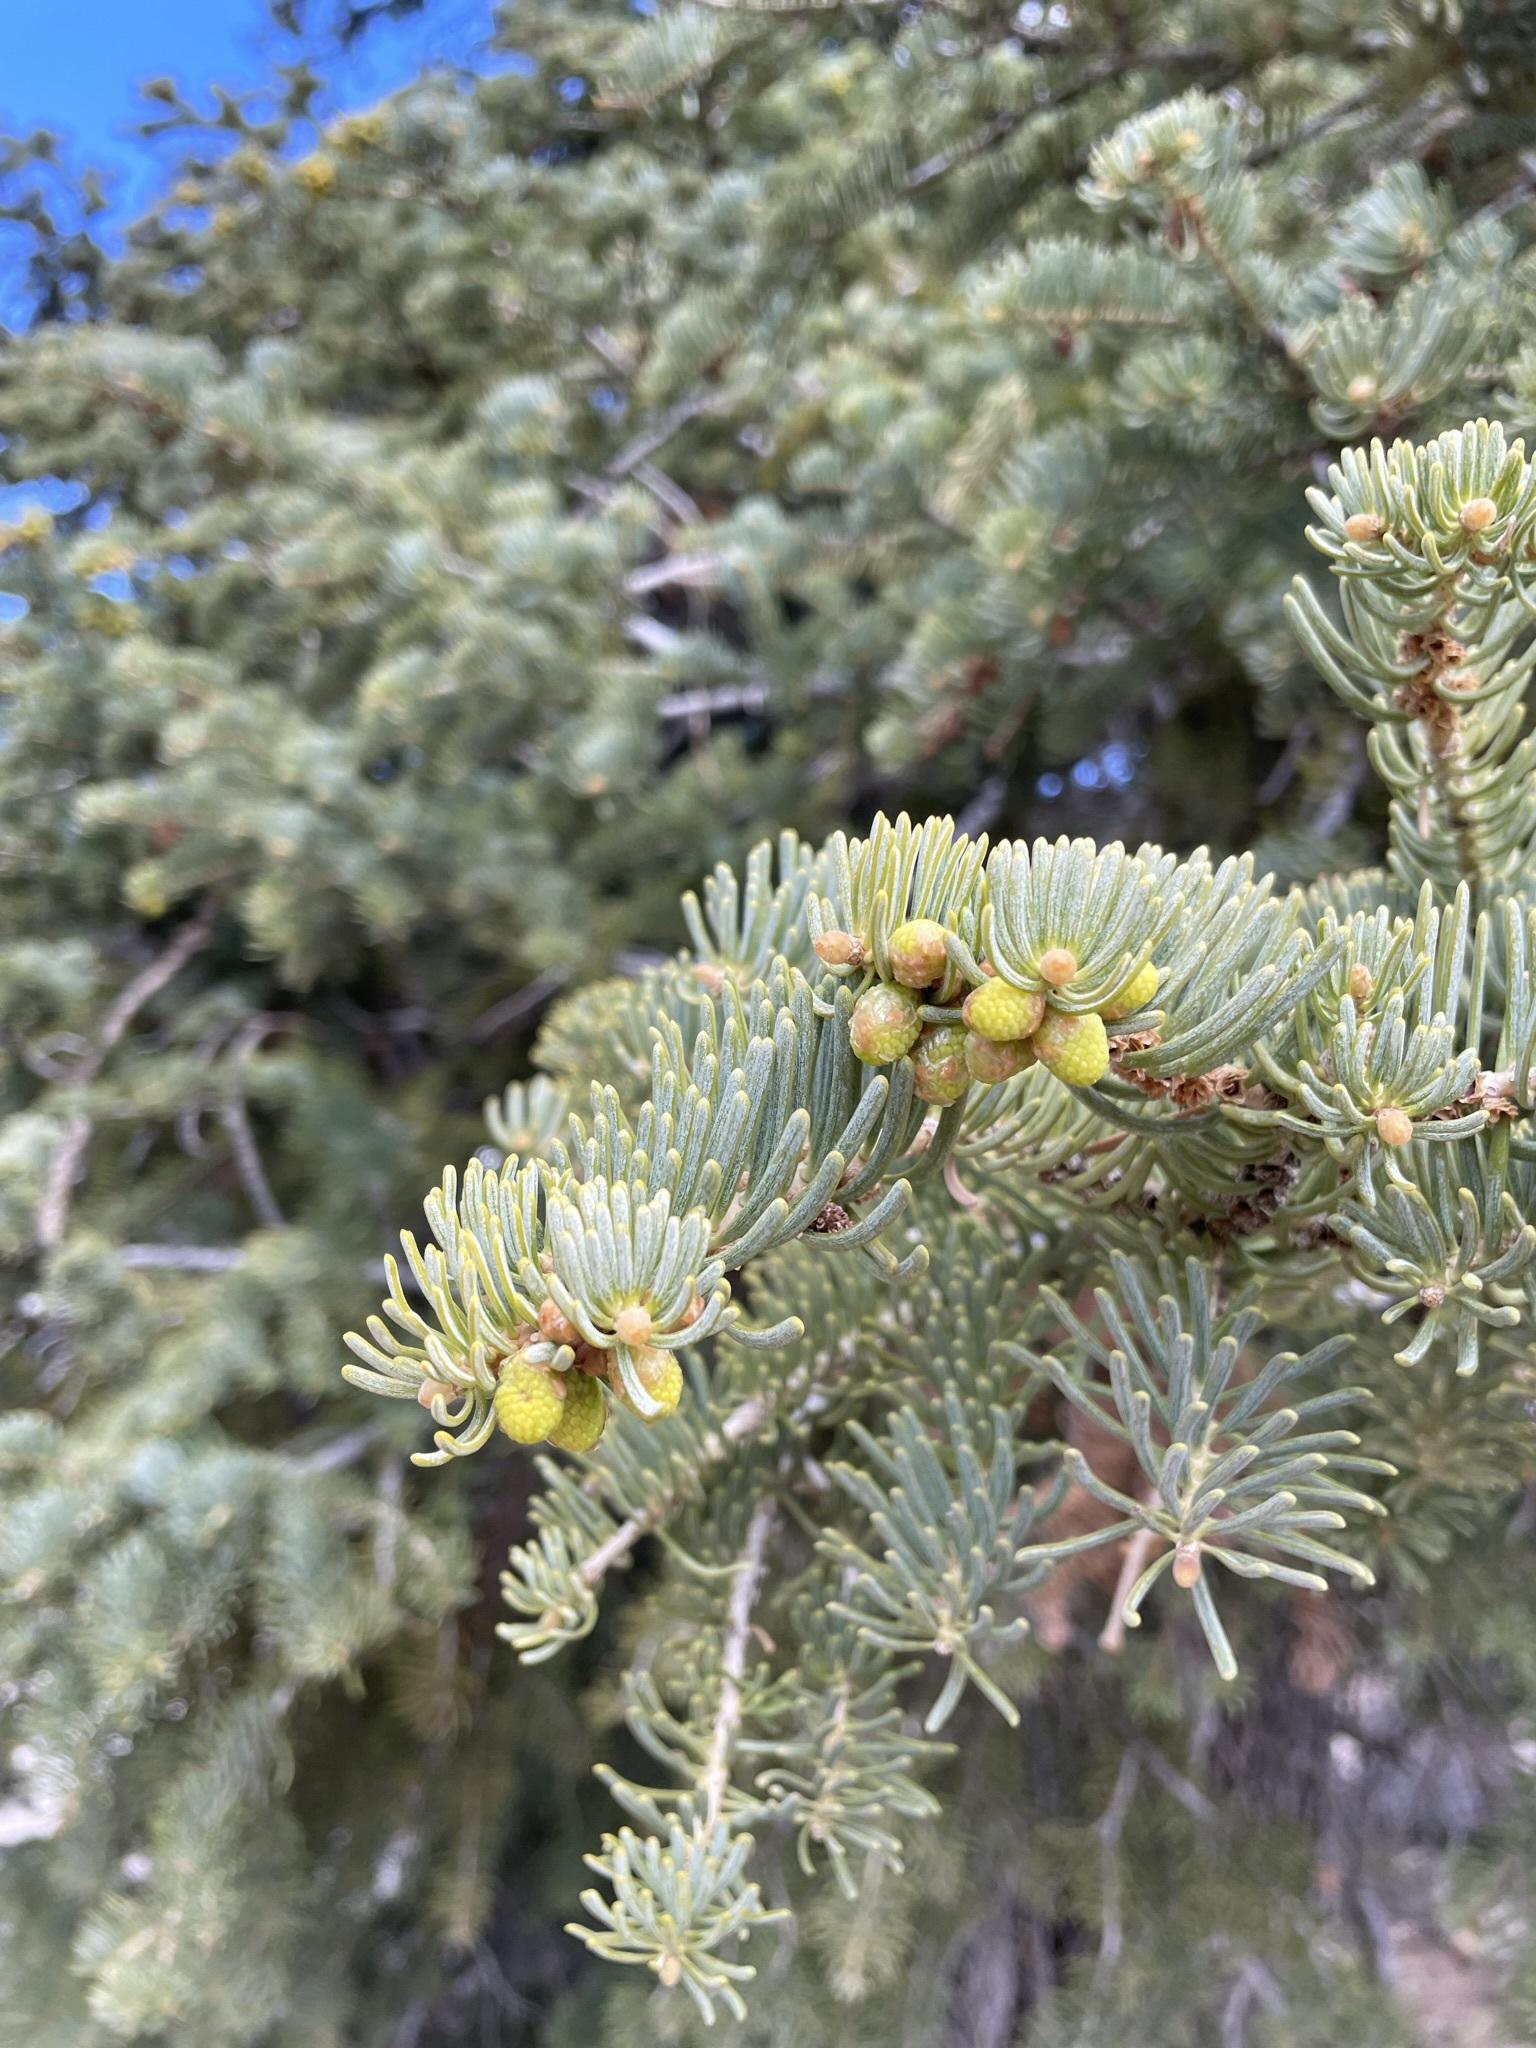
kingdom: Plantae
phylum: Tracheophyta
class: Pinopsida
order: Pinales
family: Pinaceae
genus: Abies
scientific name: Abies concolor
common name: Colorado fir
